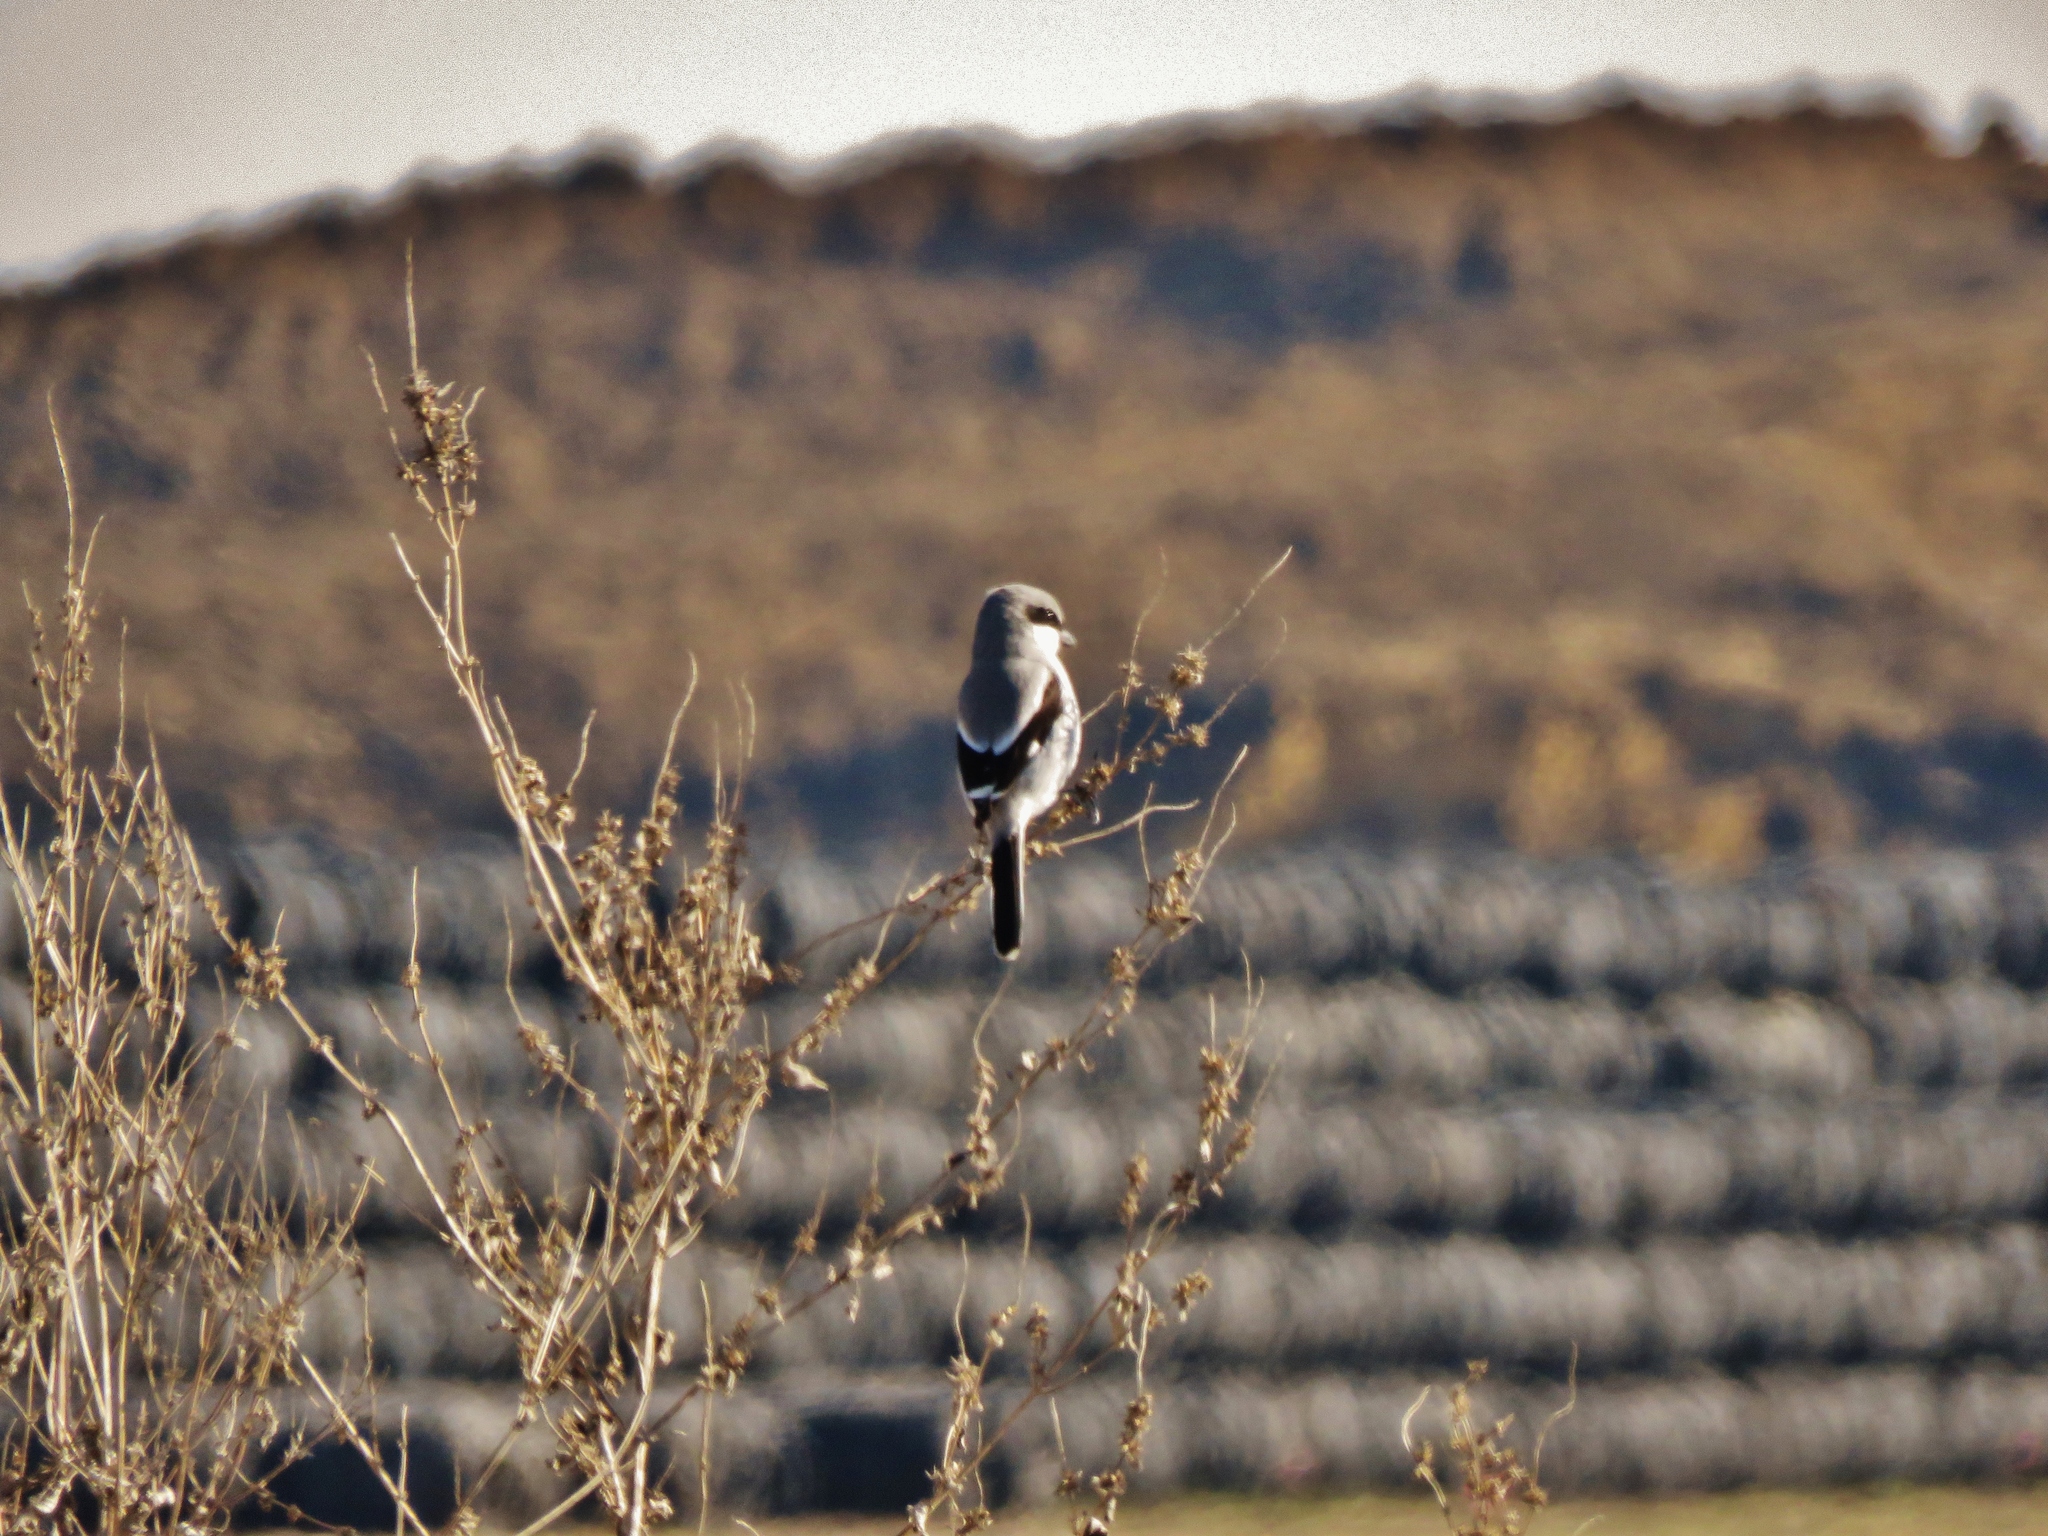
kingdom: Animalia
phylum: Chordata
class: Aves
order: Passeriformes
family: Laniidae
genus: Lanius
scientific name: Lanius ludovicianus
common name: Loggerhead shrike
